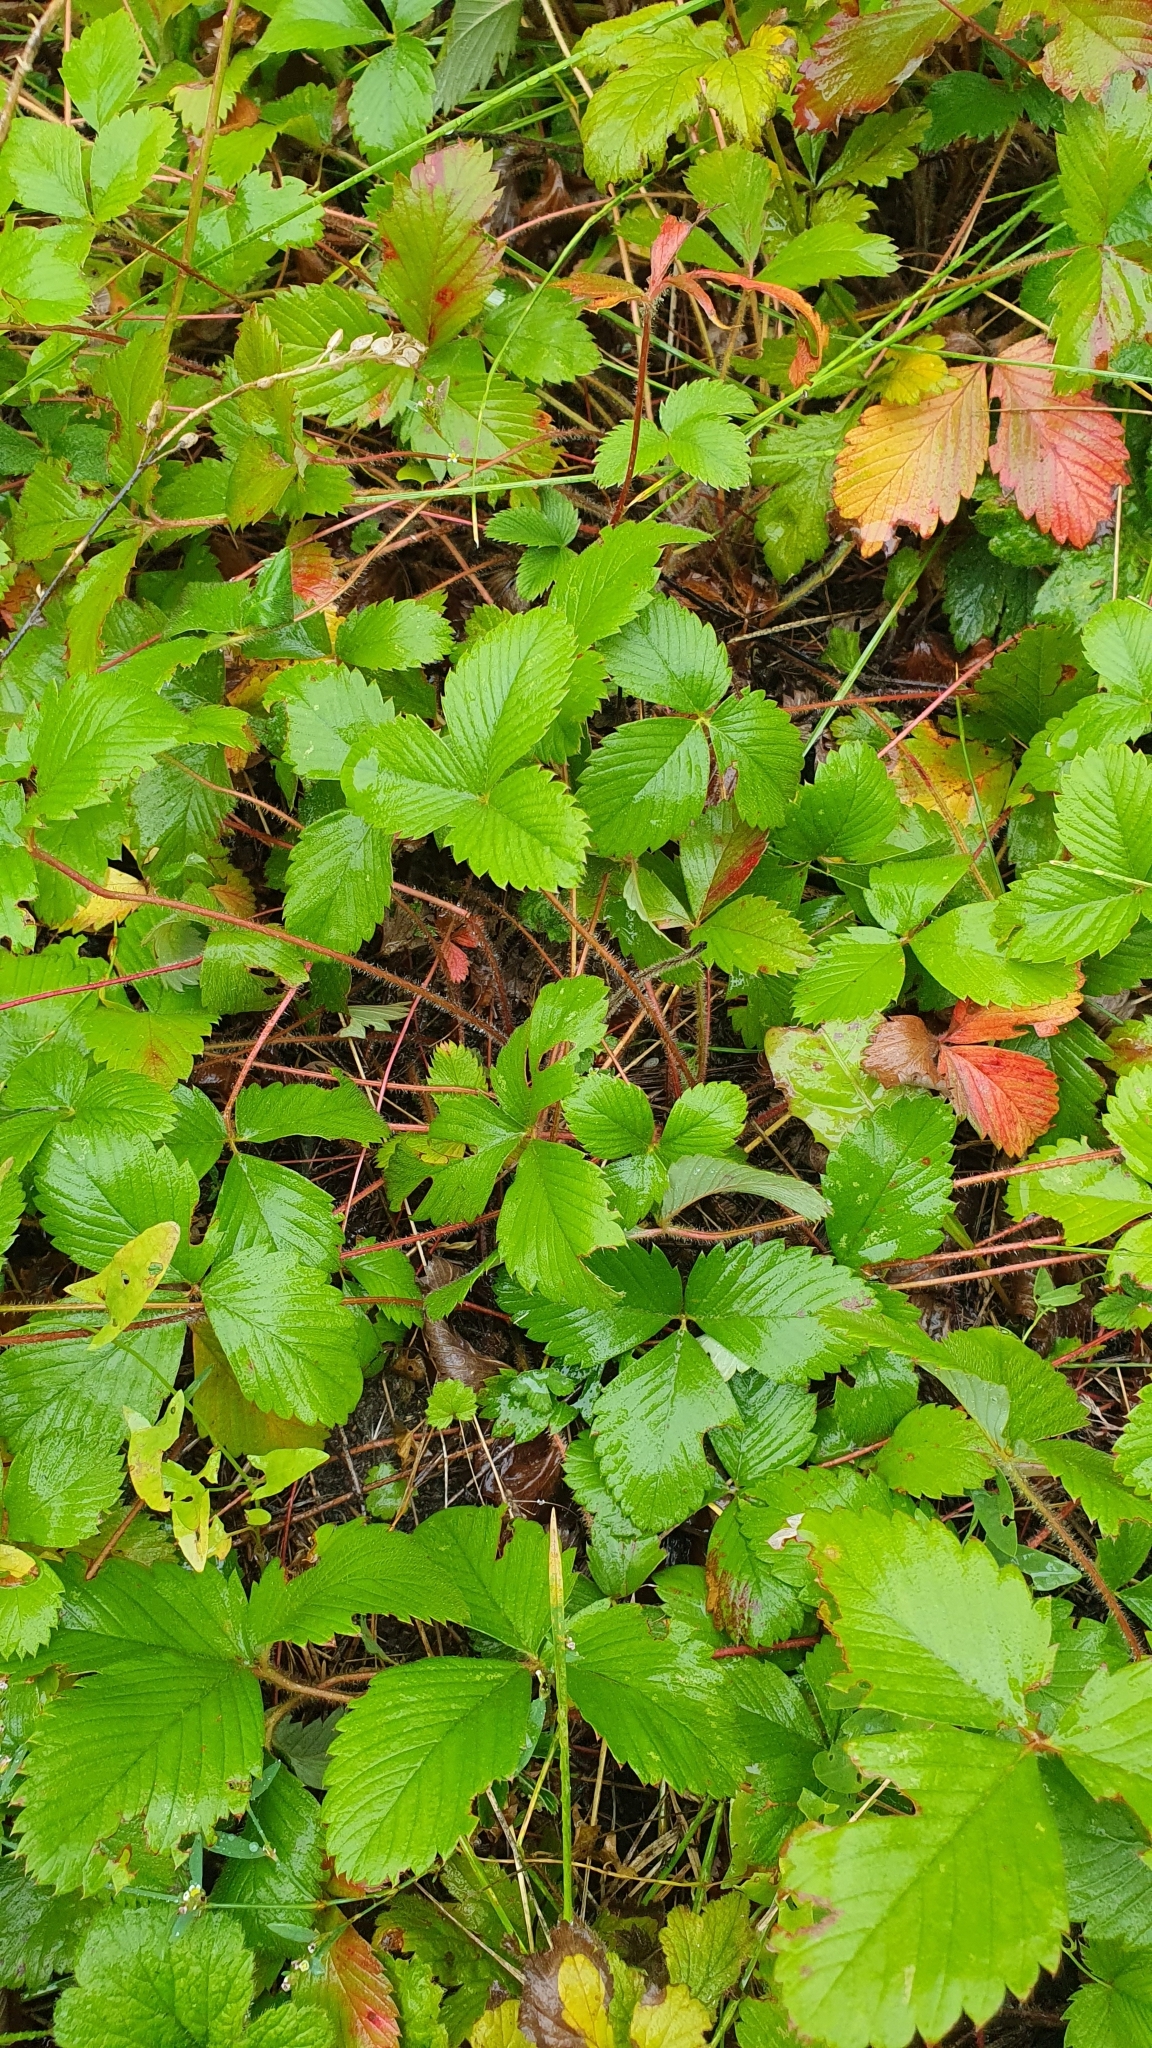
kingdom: Plantae
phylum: Tracheophyta
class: Magnoliopsida
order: Rosales
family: Rosaceae
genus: Fragaria
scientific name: Fragaria viridis
